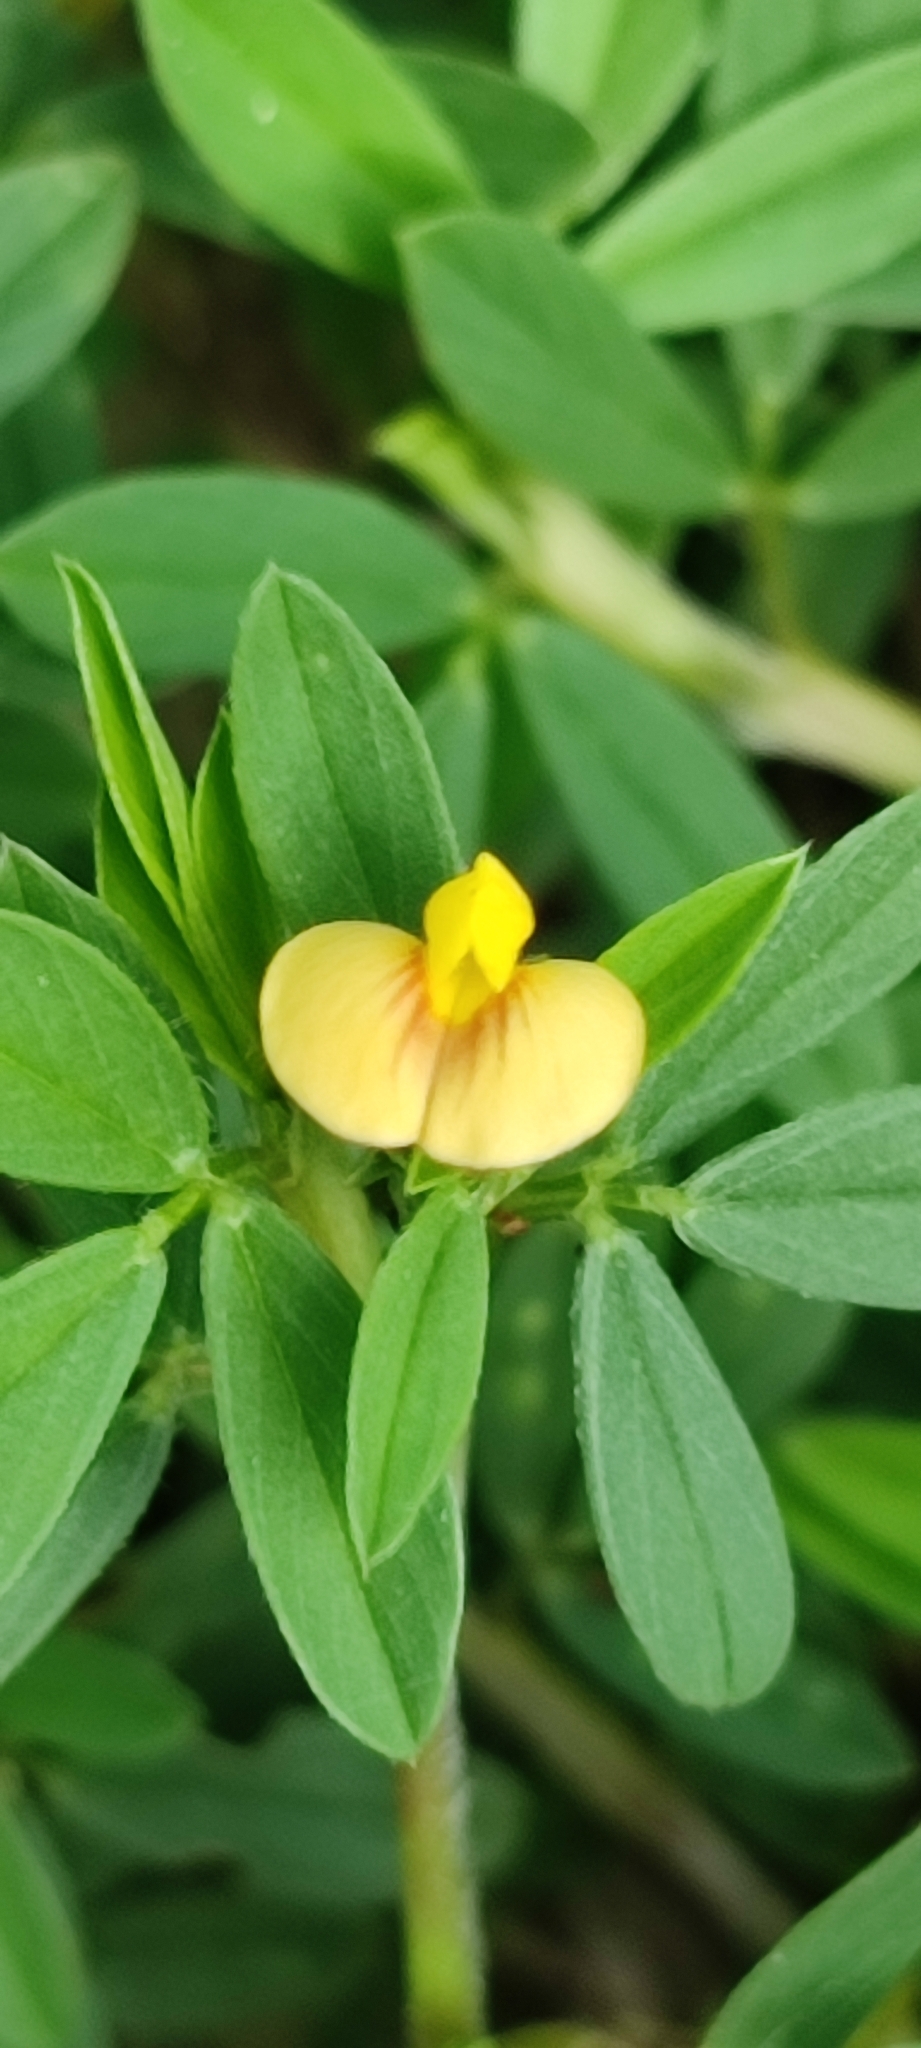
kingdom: Plantae
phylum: Tracheophyta
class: Magnoliopsida
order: Fabales
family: Fabaceae
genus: Stylosanthes
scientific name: Stylosanthes hamata
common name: Cheesytoes
